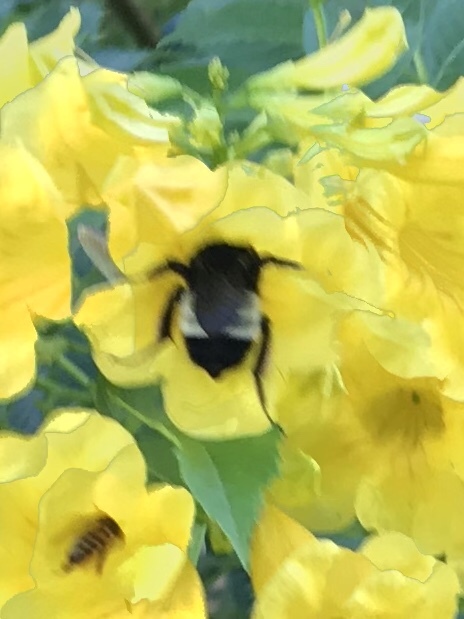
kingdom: Animalia
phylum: Arthropoda
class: Insecta
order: Hymenoptera
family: Apidae
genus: Bombus
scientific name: Bombus pensylvanicus
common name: Bumble bee
